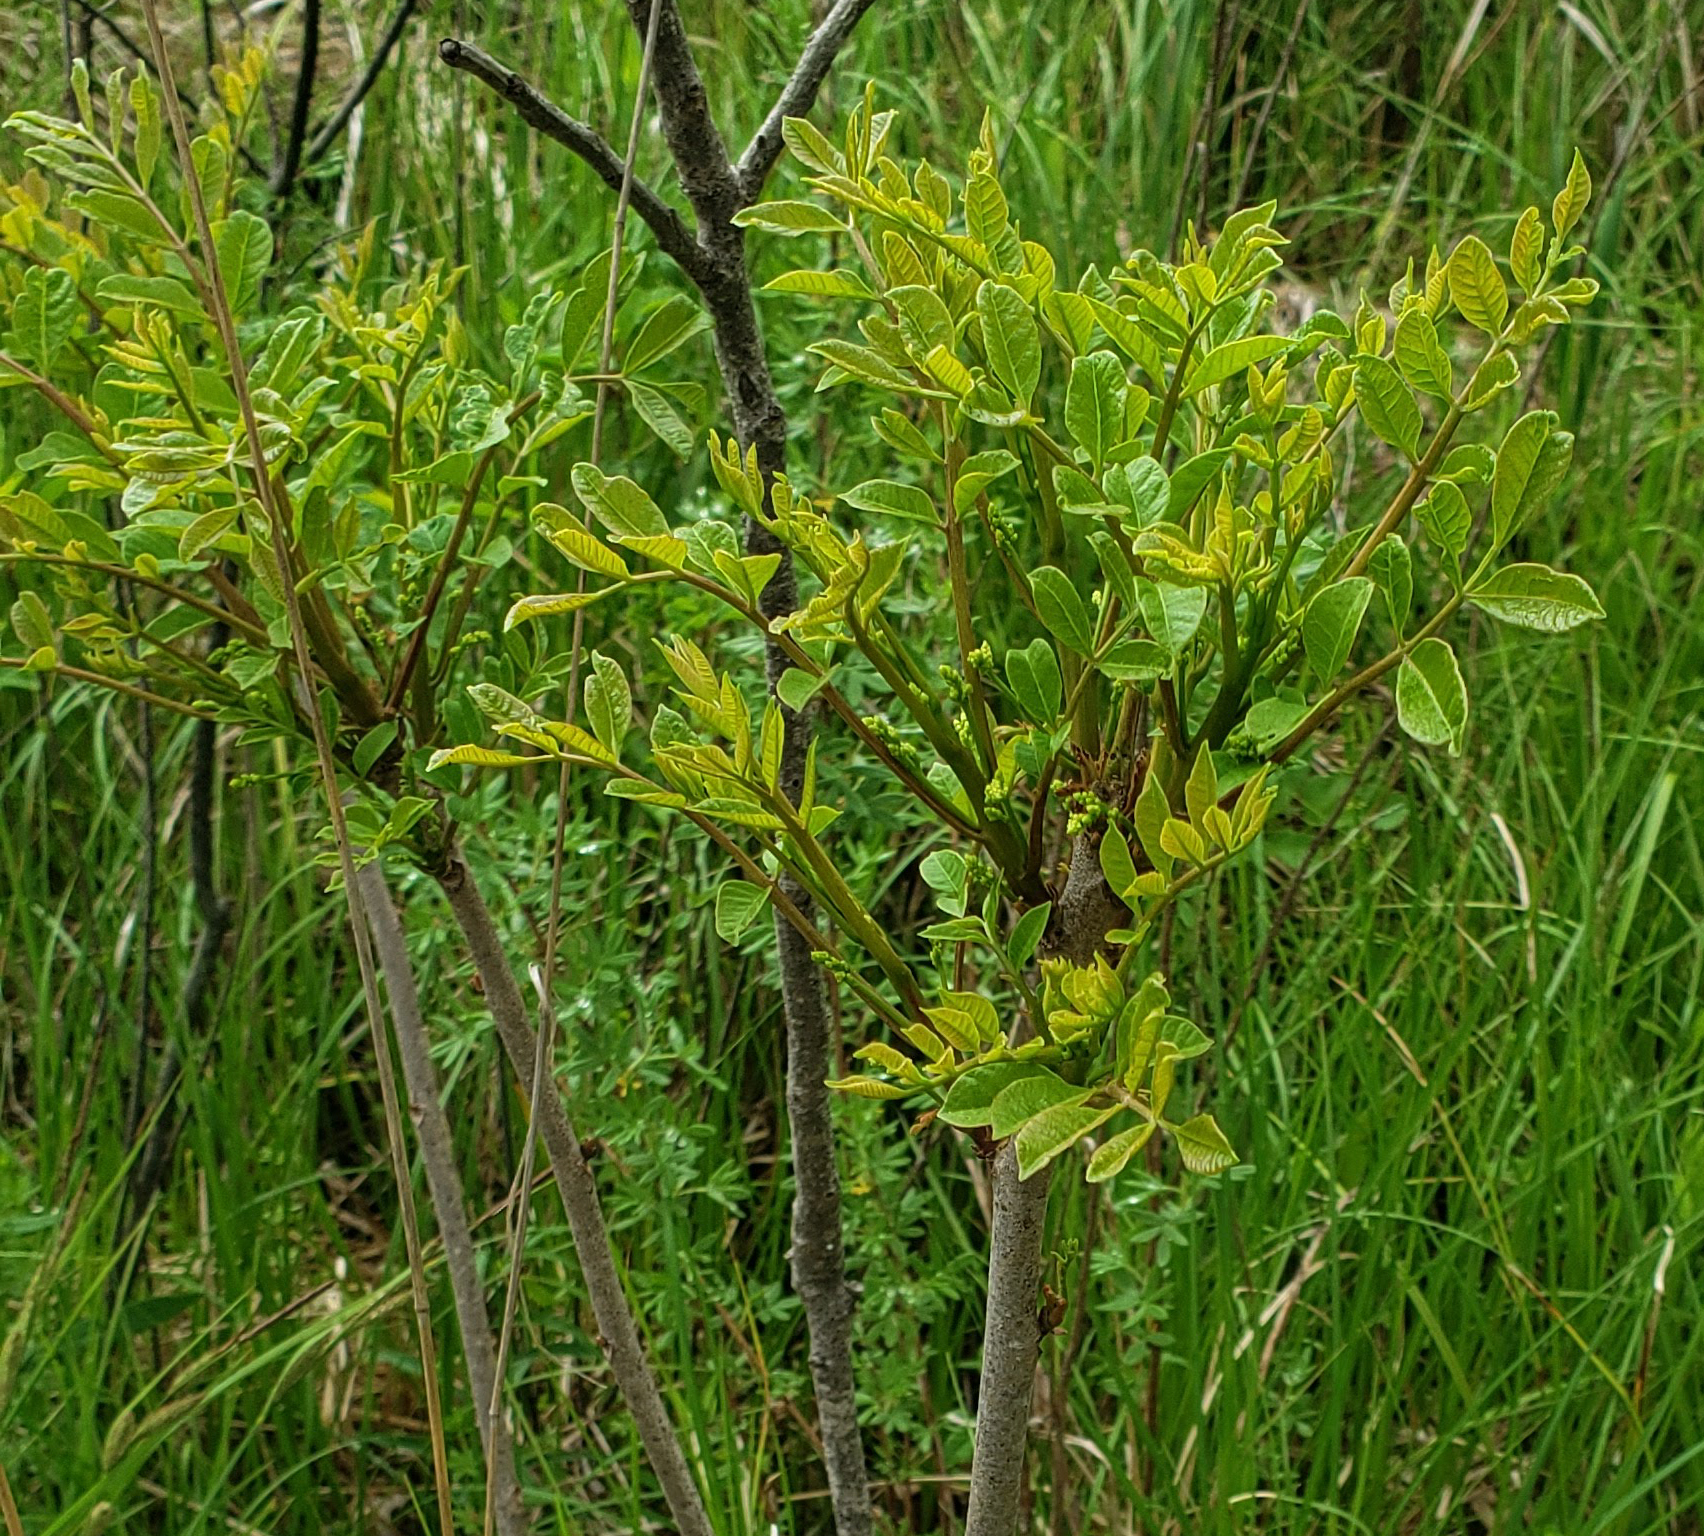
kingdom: Plantae
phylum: Tracheophyta
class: Magnoliopsida
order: Sapindales
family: Anacardiaceae
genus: Toxicodendron
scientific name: Toxicodendron vernix
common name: Poison sumac
